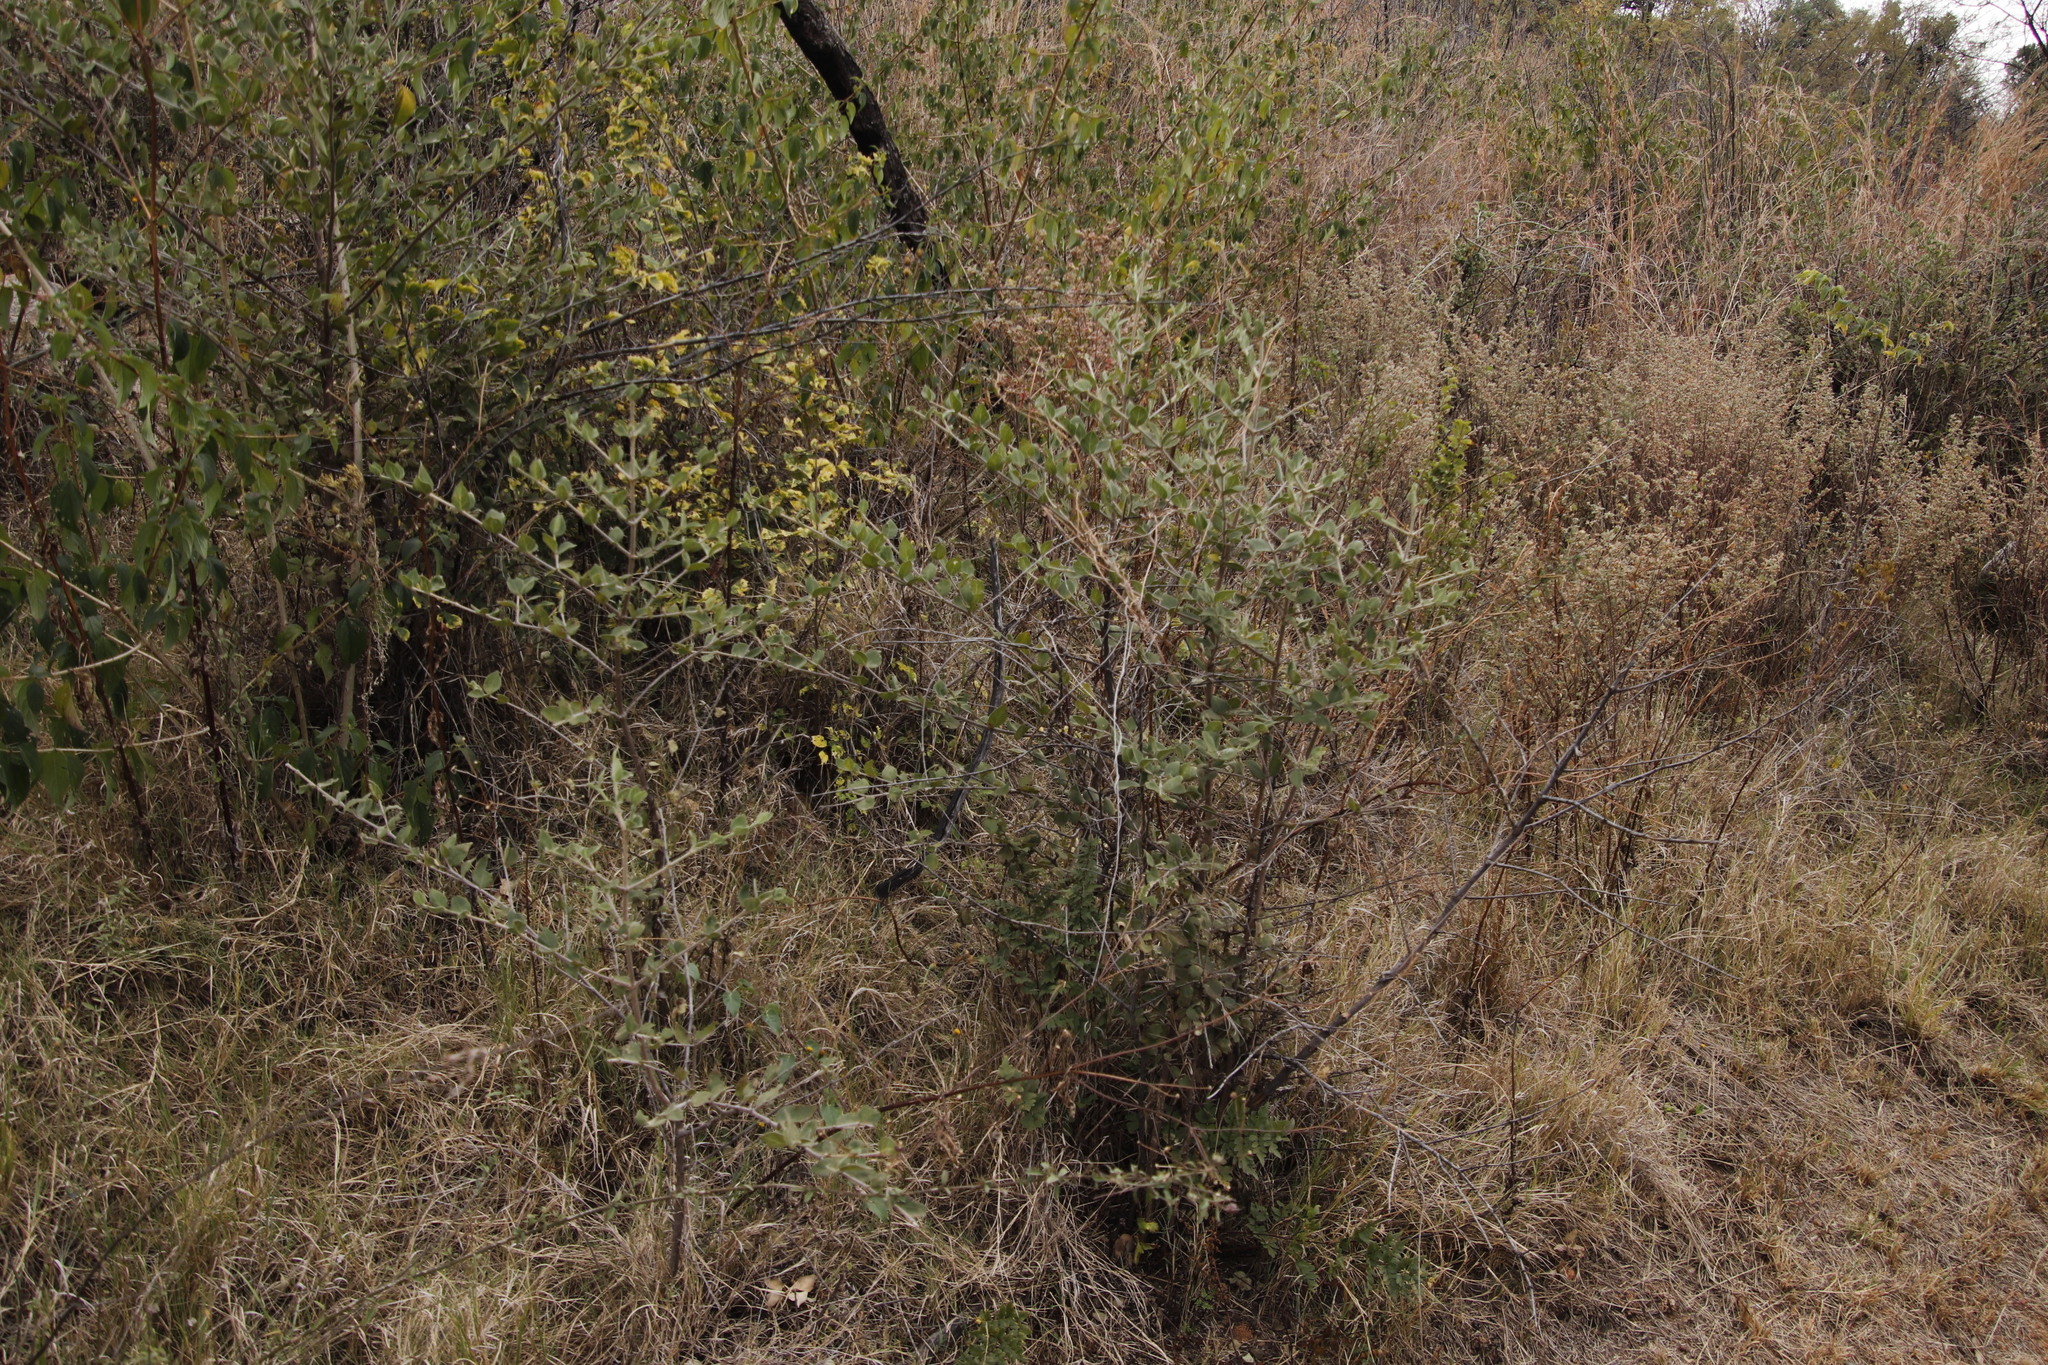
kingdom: Plantae
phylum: Tracheophyta
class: Magnoliopsida
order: Gentianales
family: Rubiaceae
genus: Afrocanthium
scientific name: Afrocanthium gilfillanii
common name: Velvet rock-alder
